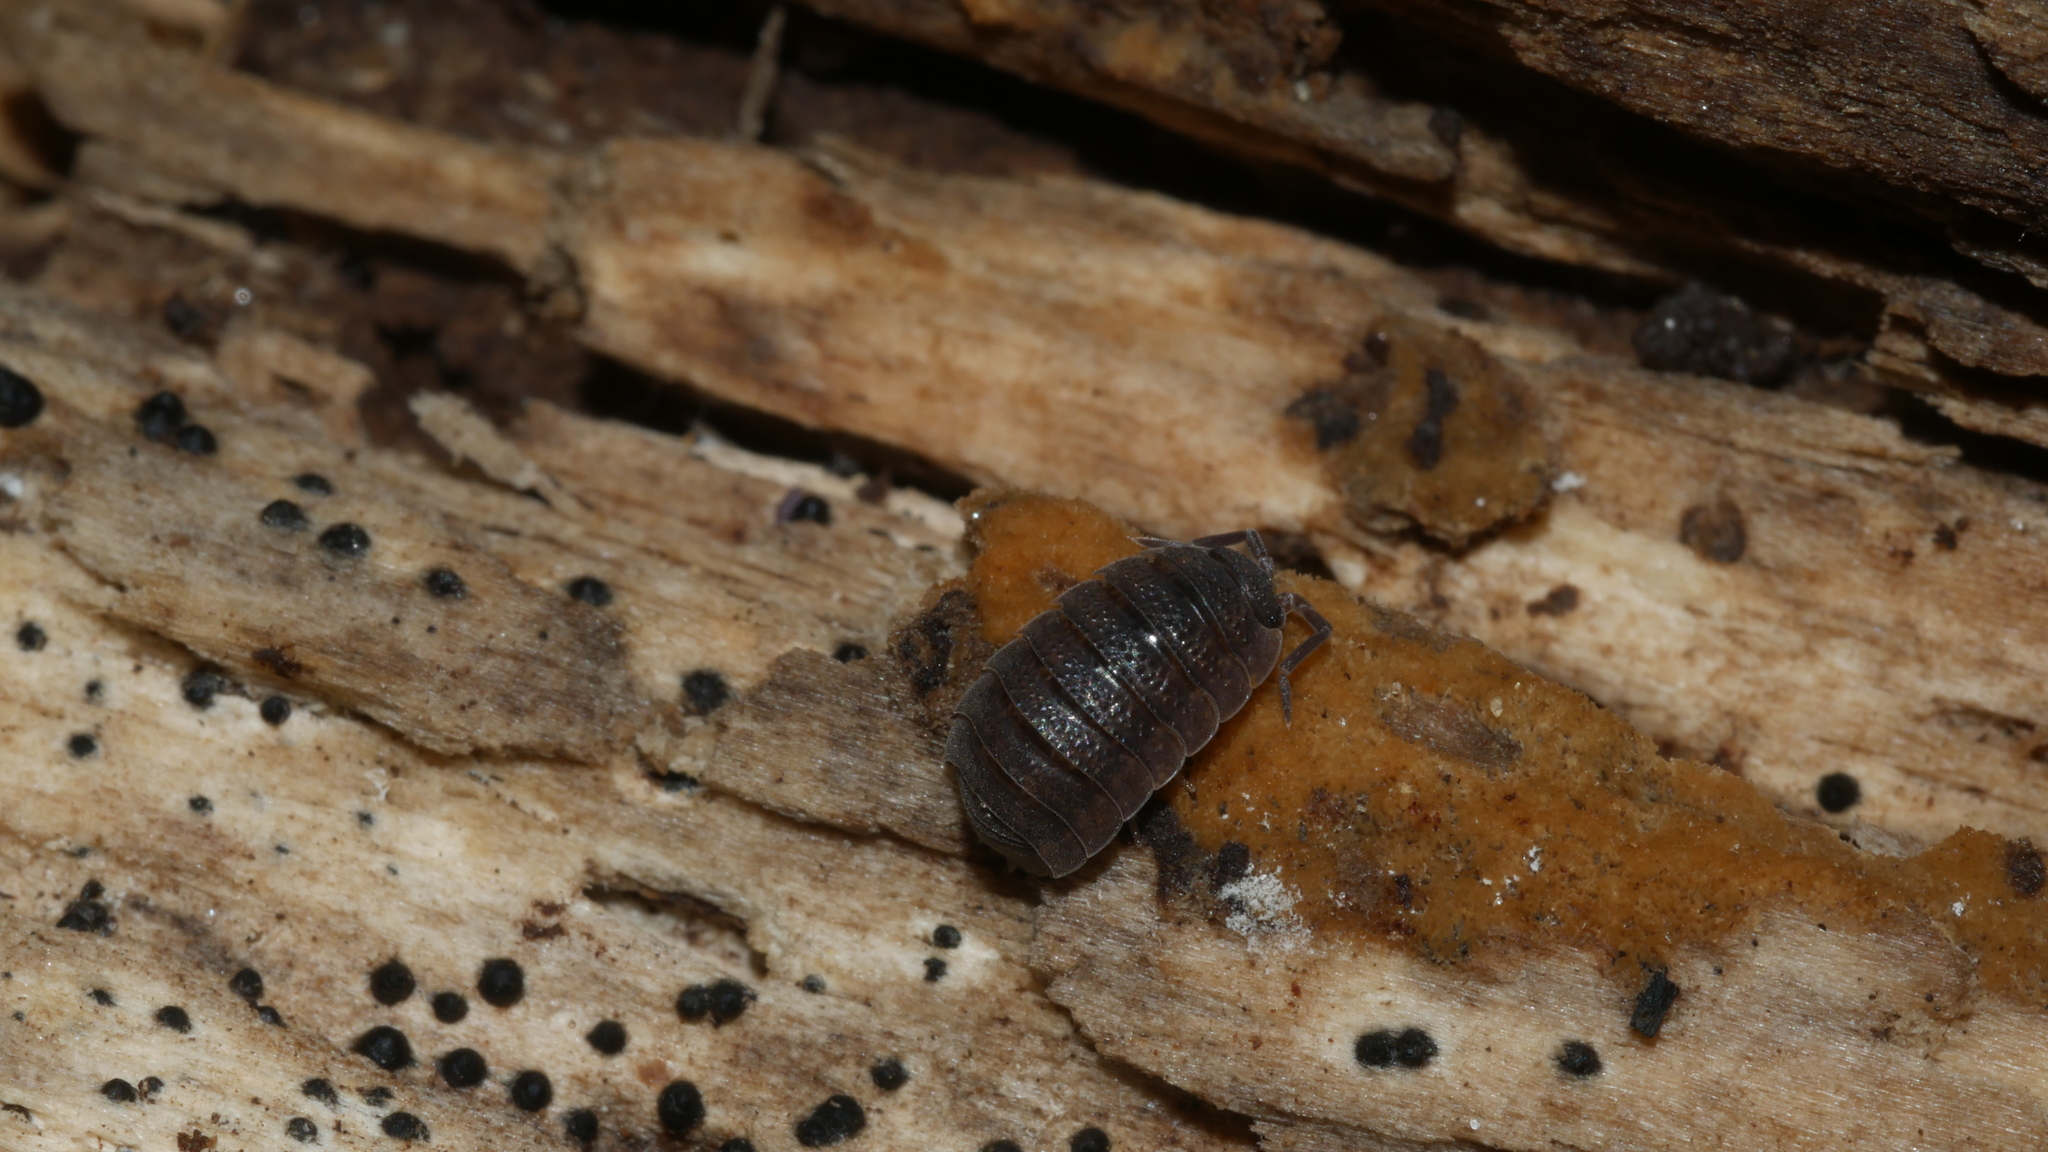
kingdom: Animalia
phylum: Arthropoda
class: Malacostraca
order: Isopoda
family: Porcellionidae
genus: Porcellio
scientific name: Porcellio scaber
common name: Common rough woodlouse
